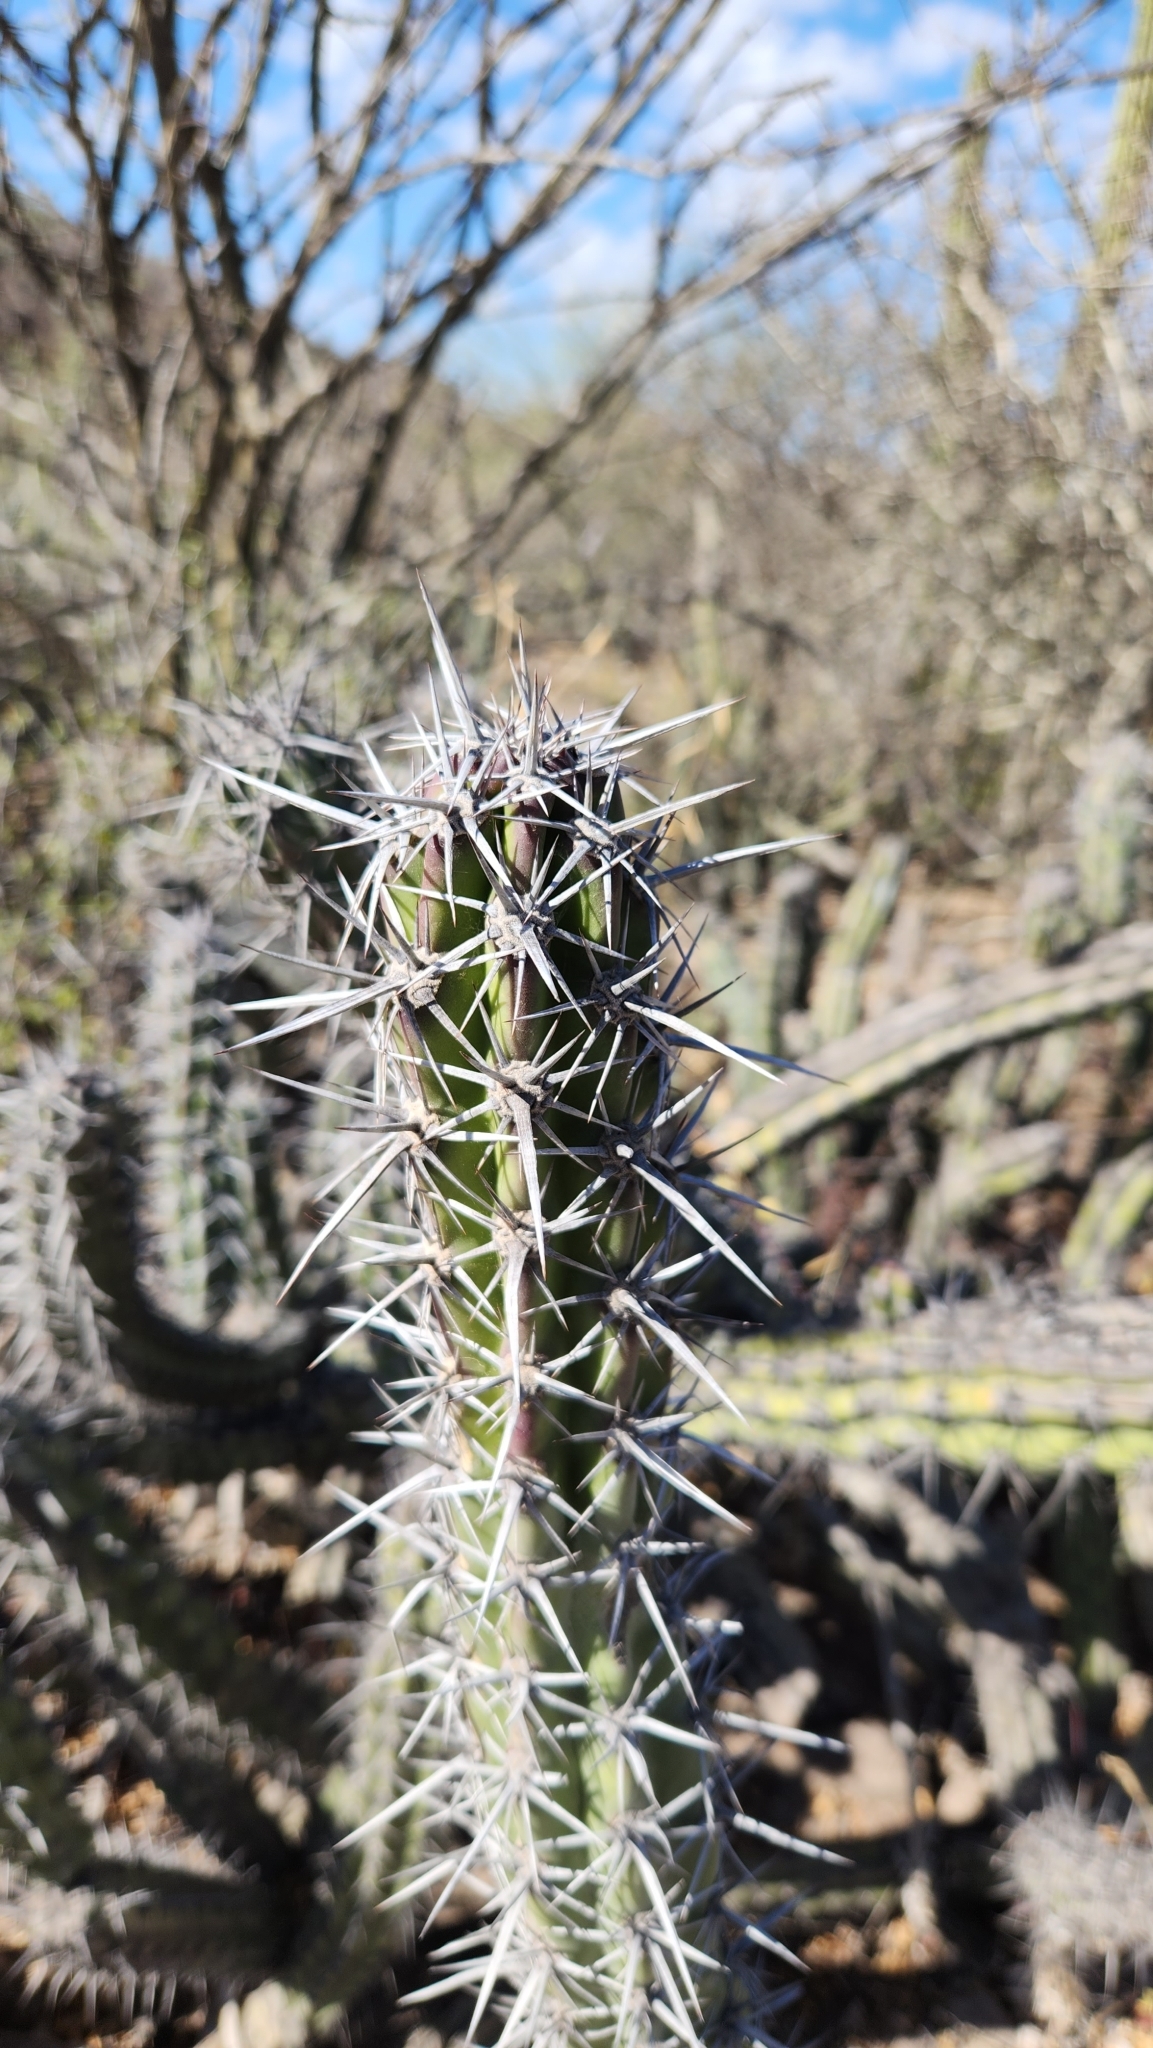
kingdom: Plantae
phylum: Tracheophyta
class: Magnoliopsida
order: Caryophyllales
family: Cactaceae
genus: Stenocereus
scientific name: Stenocereus gummosus
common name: Dagger cactus
